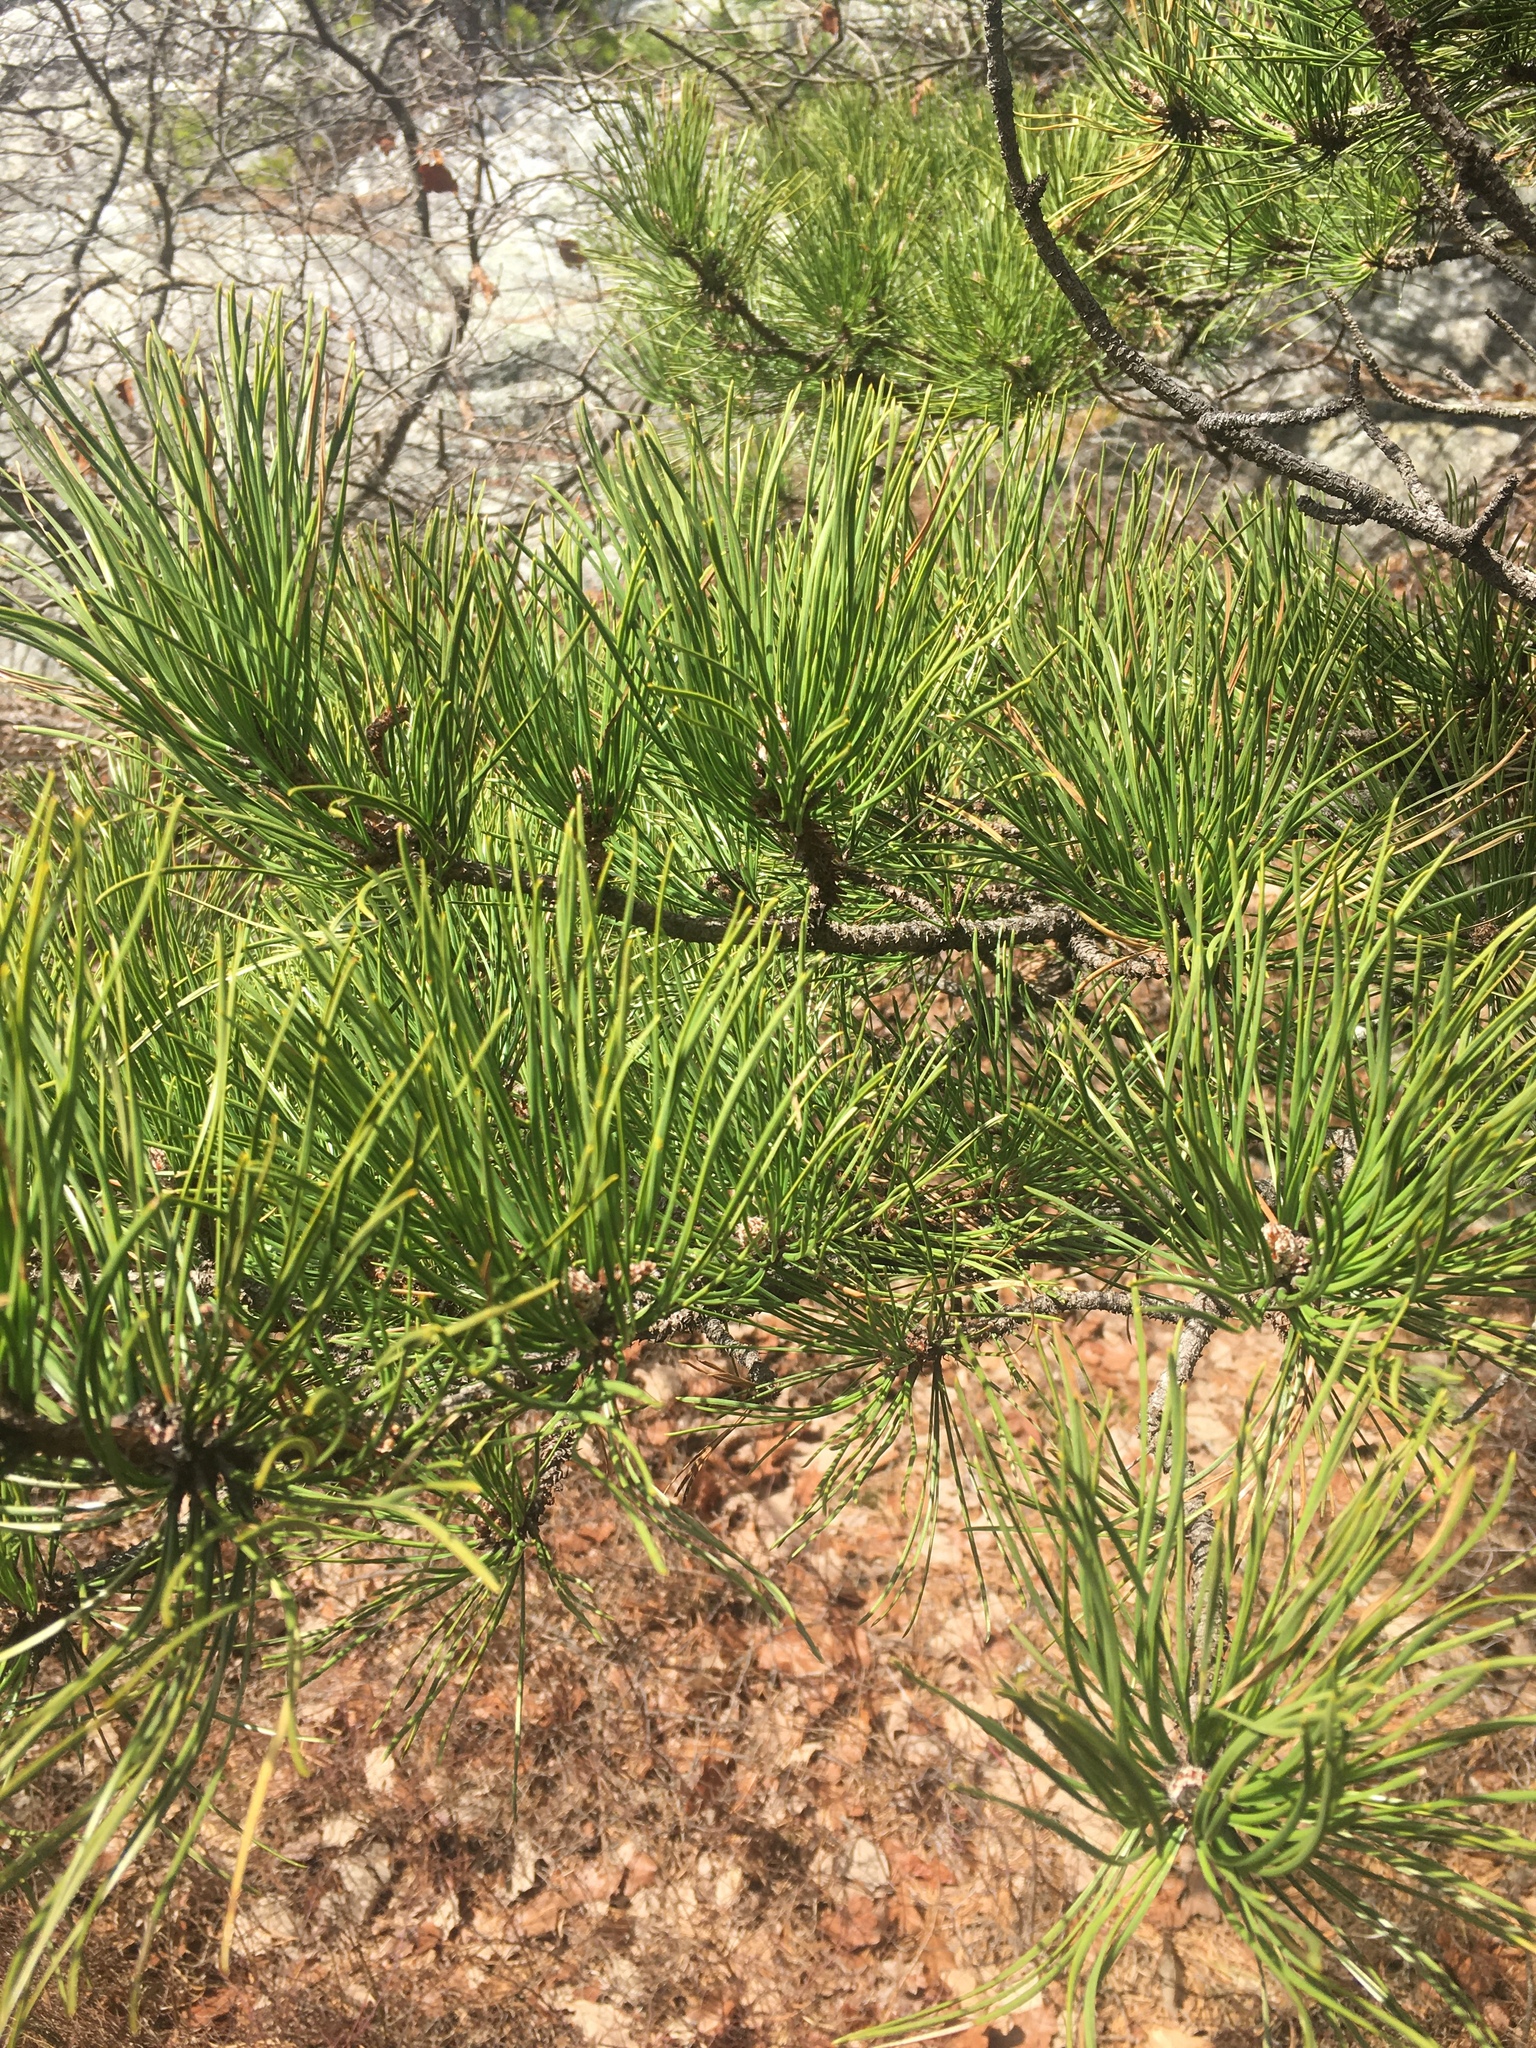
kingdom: Plantae
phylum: Tracheophyta
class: Pinopsida
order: Pinales
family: Pinaceae
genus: Pinus
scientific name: Pinus rigida
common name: Pitch pine
